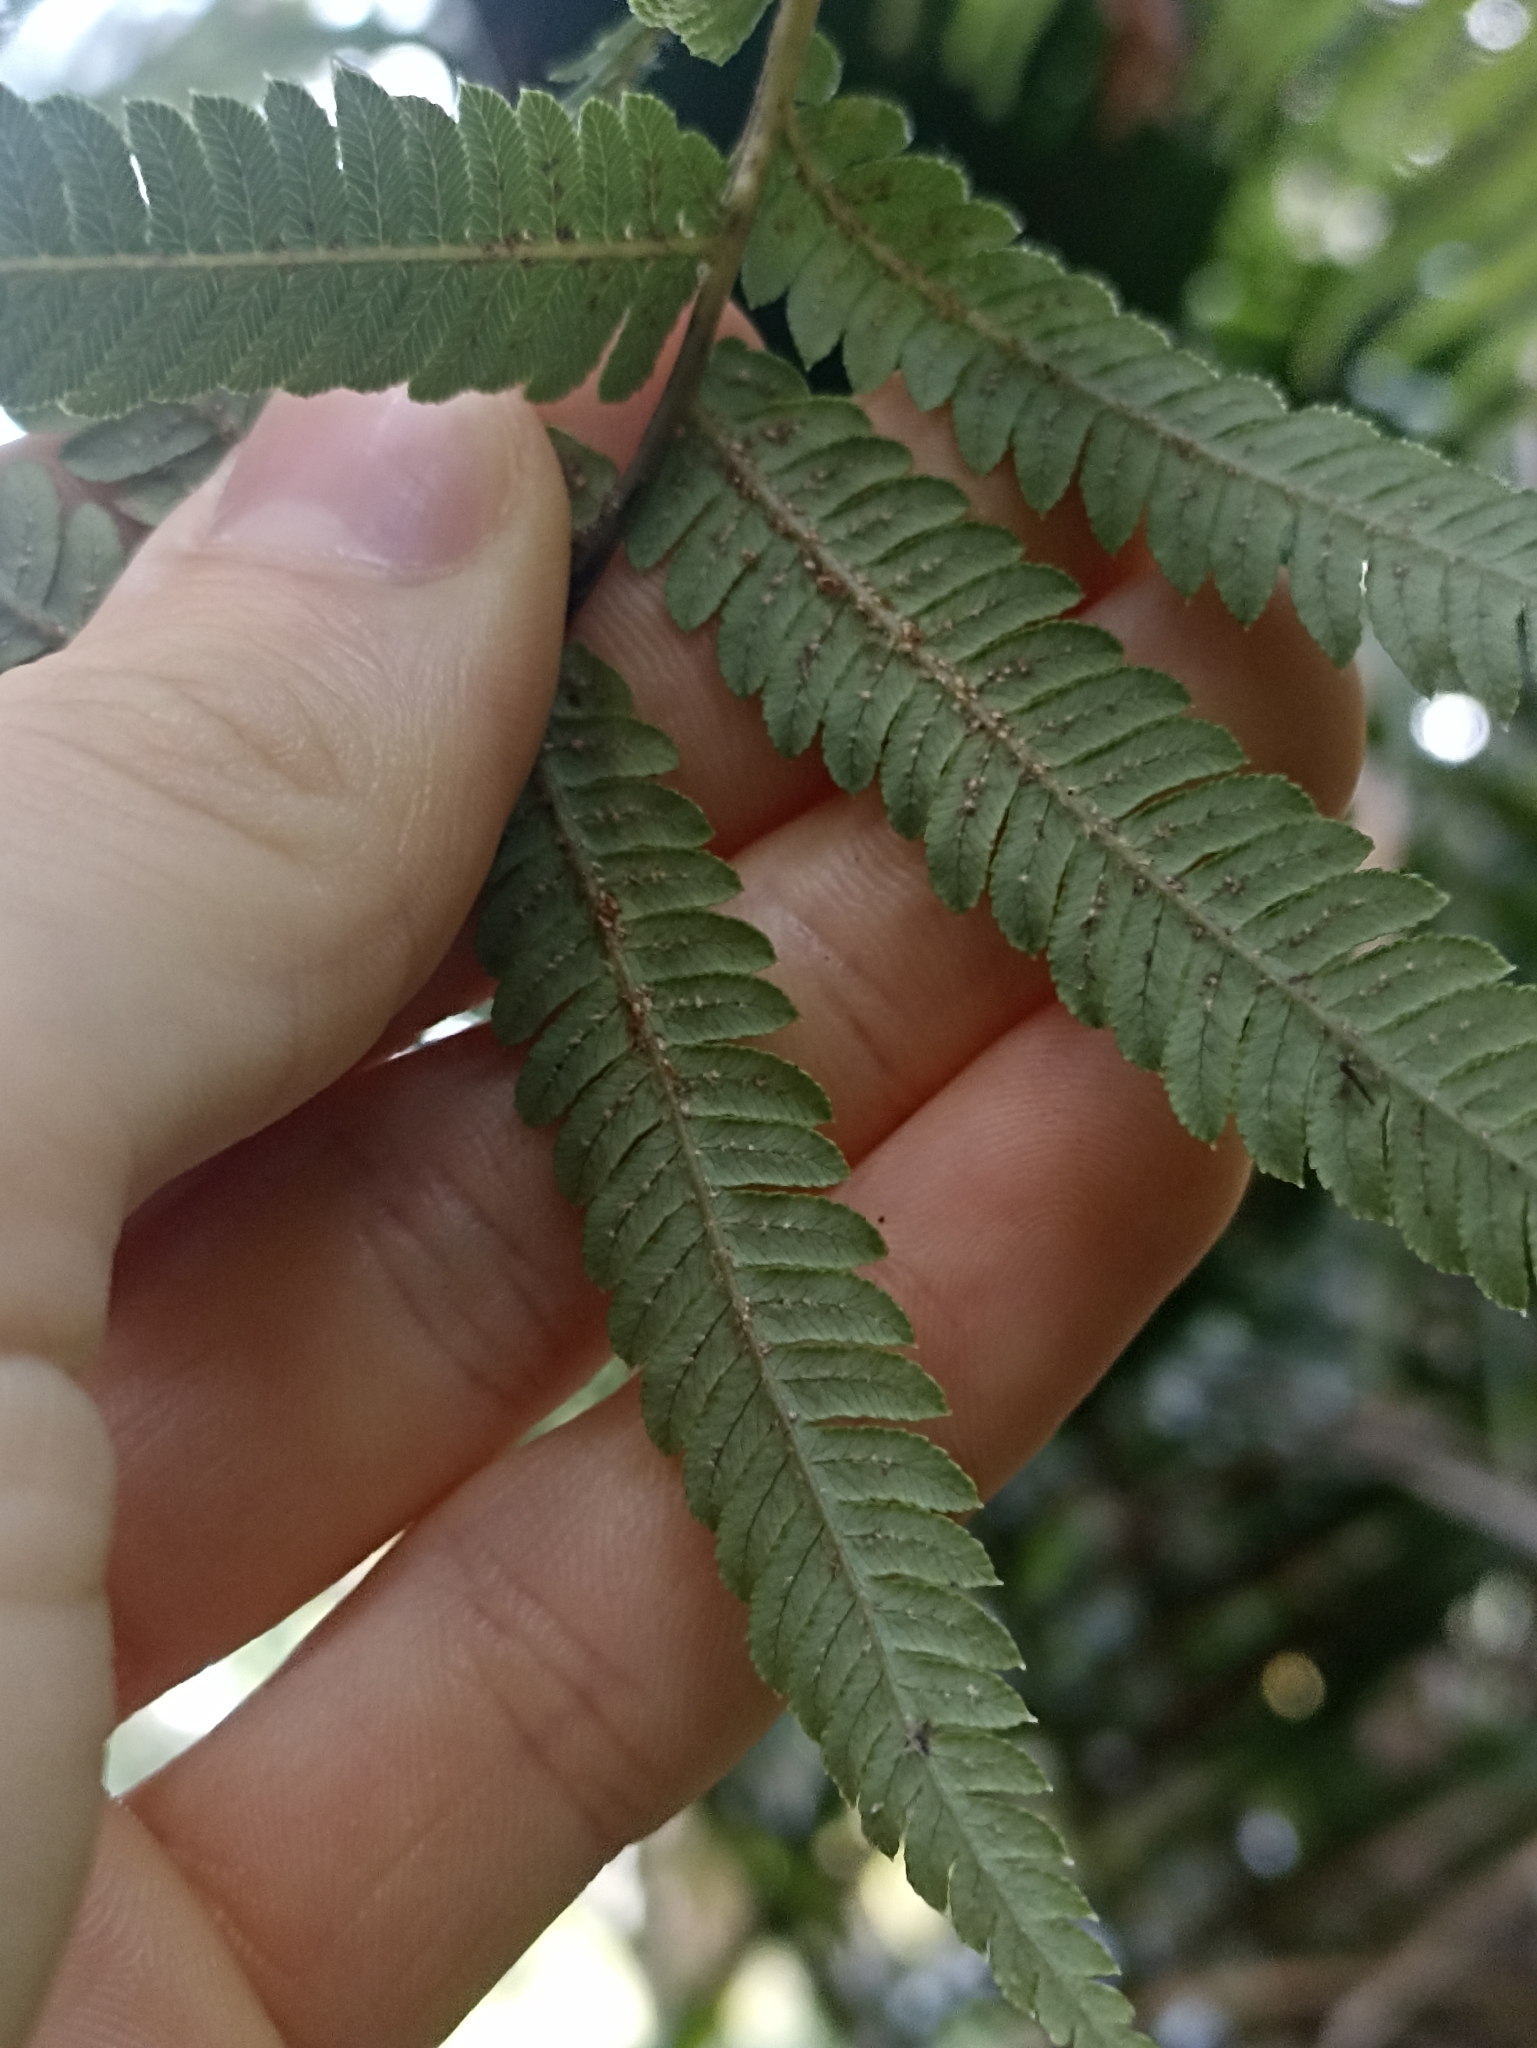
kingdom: Plantae
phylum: Tracheophyta
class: Polypodiopsida
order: Cyatheales
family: Cyatheaceae
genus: Sphaeropteris
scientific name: Sphaeropteris medullaris
